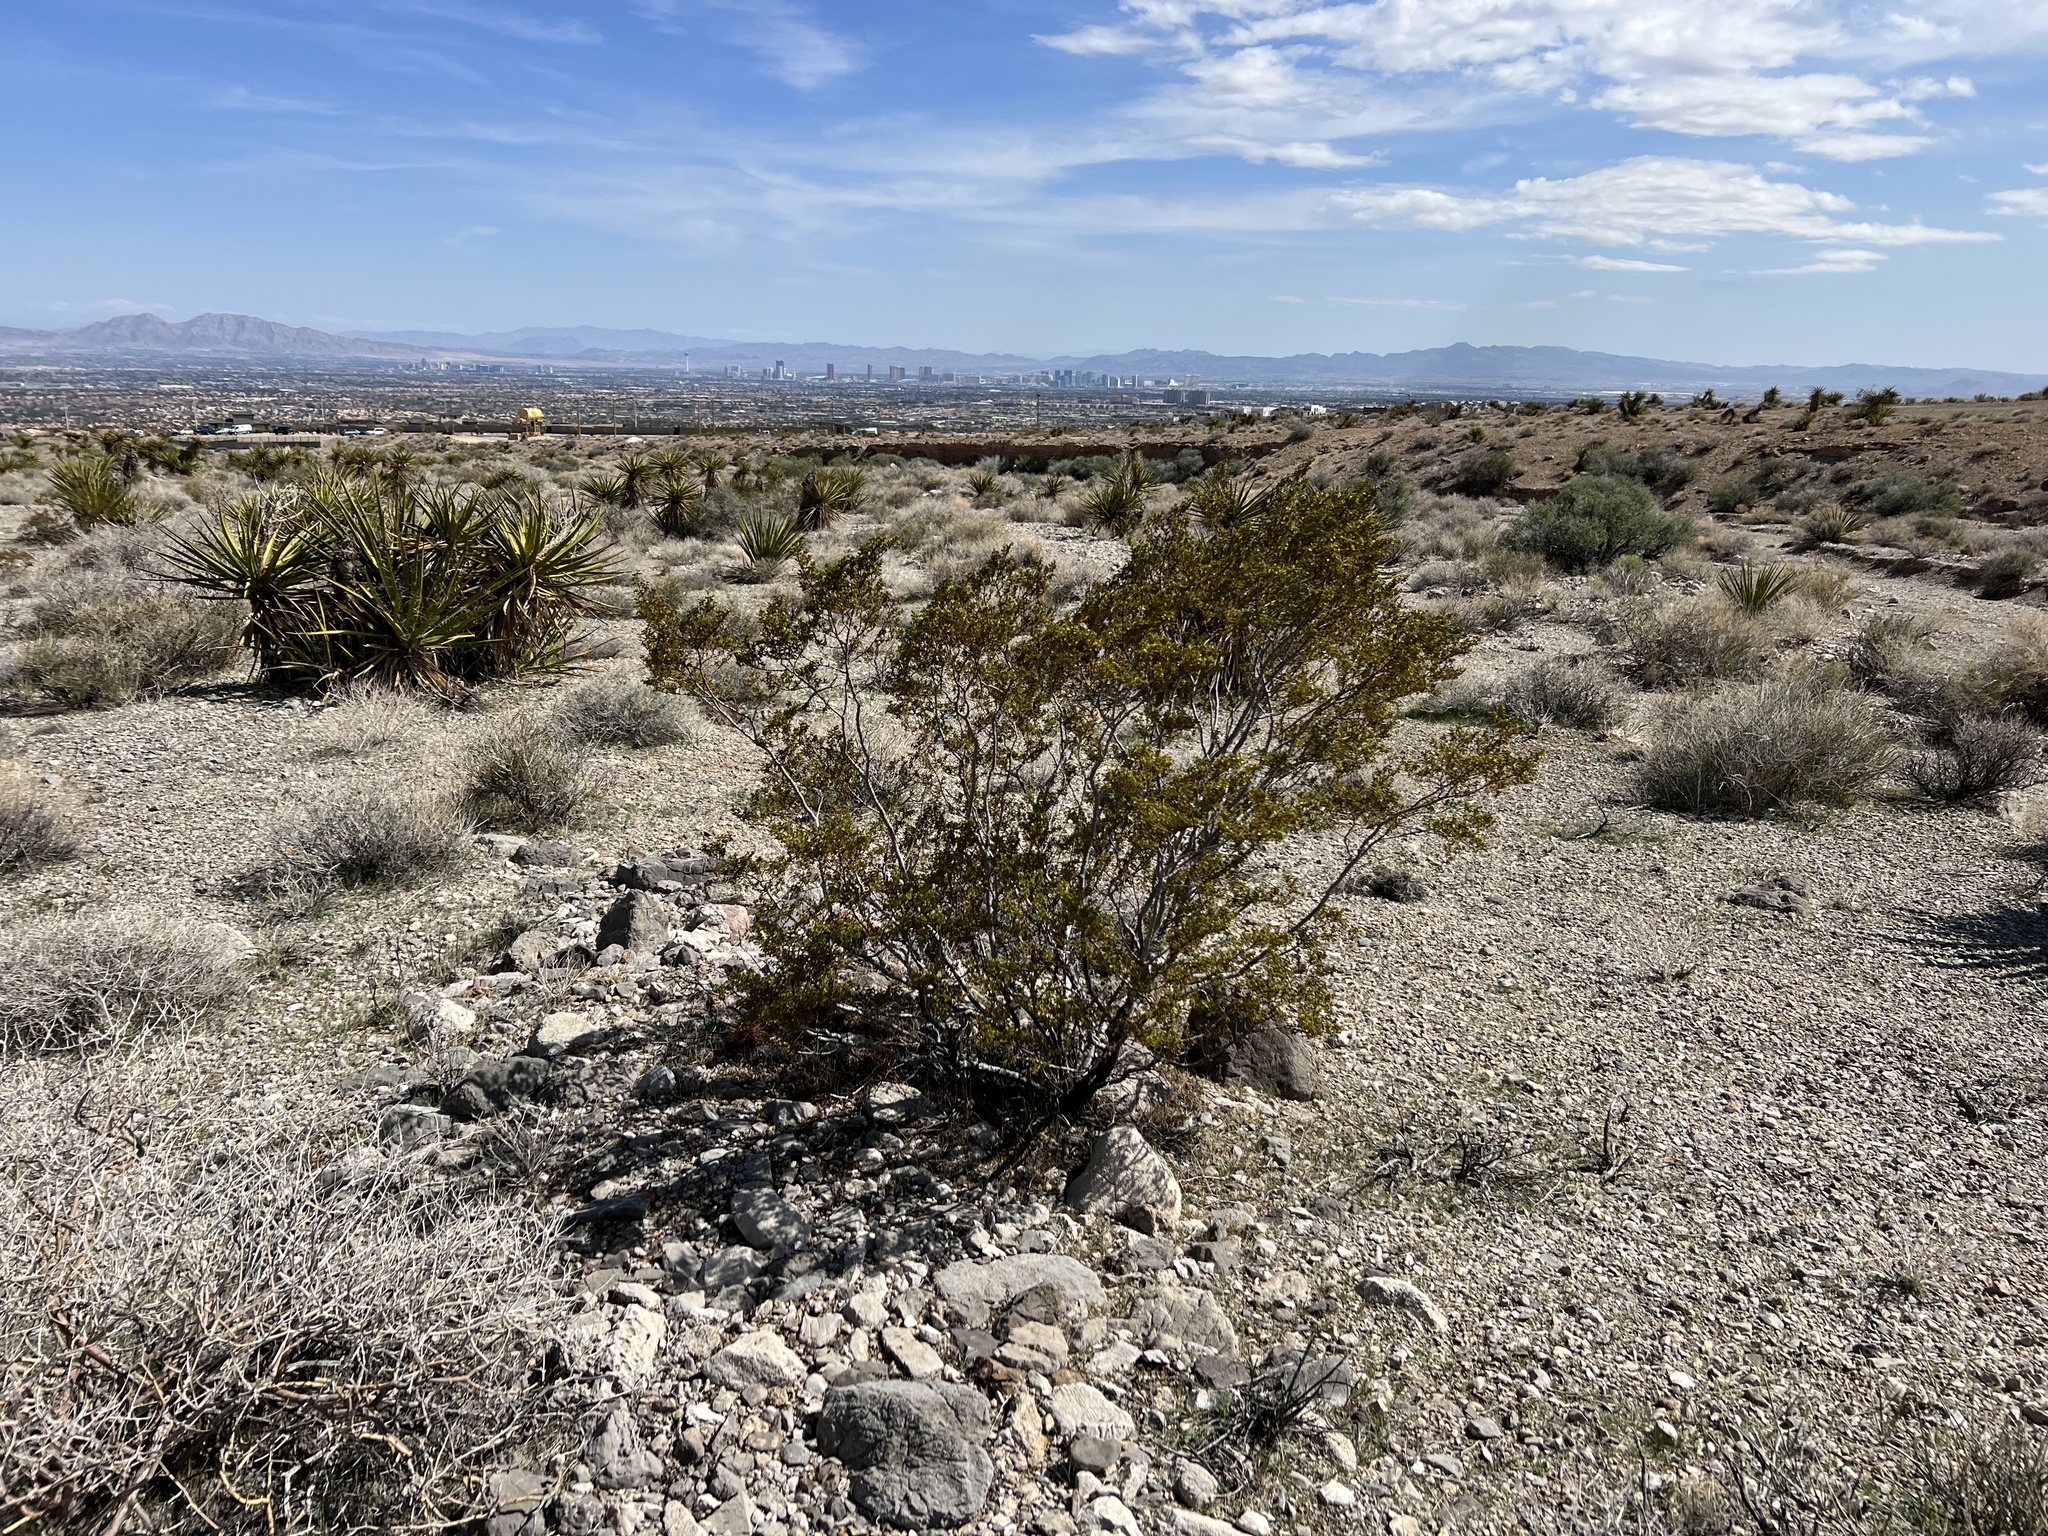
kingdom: Plantae
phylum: Tracheophyta
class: Magnoliopsida
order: Zygophyllales
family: Zygophyllaceae
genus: Larrea
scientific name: Larrea tridentata
